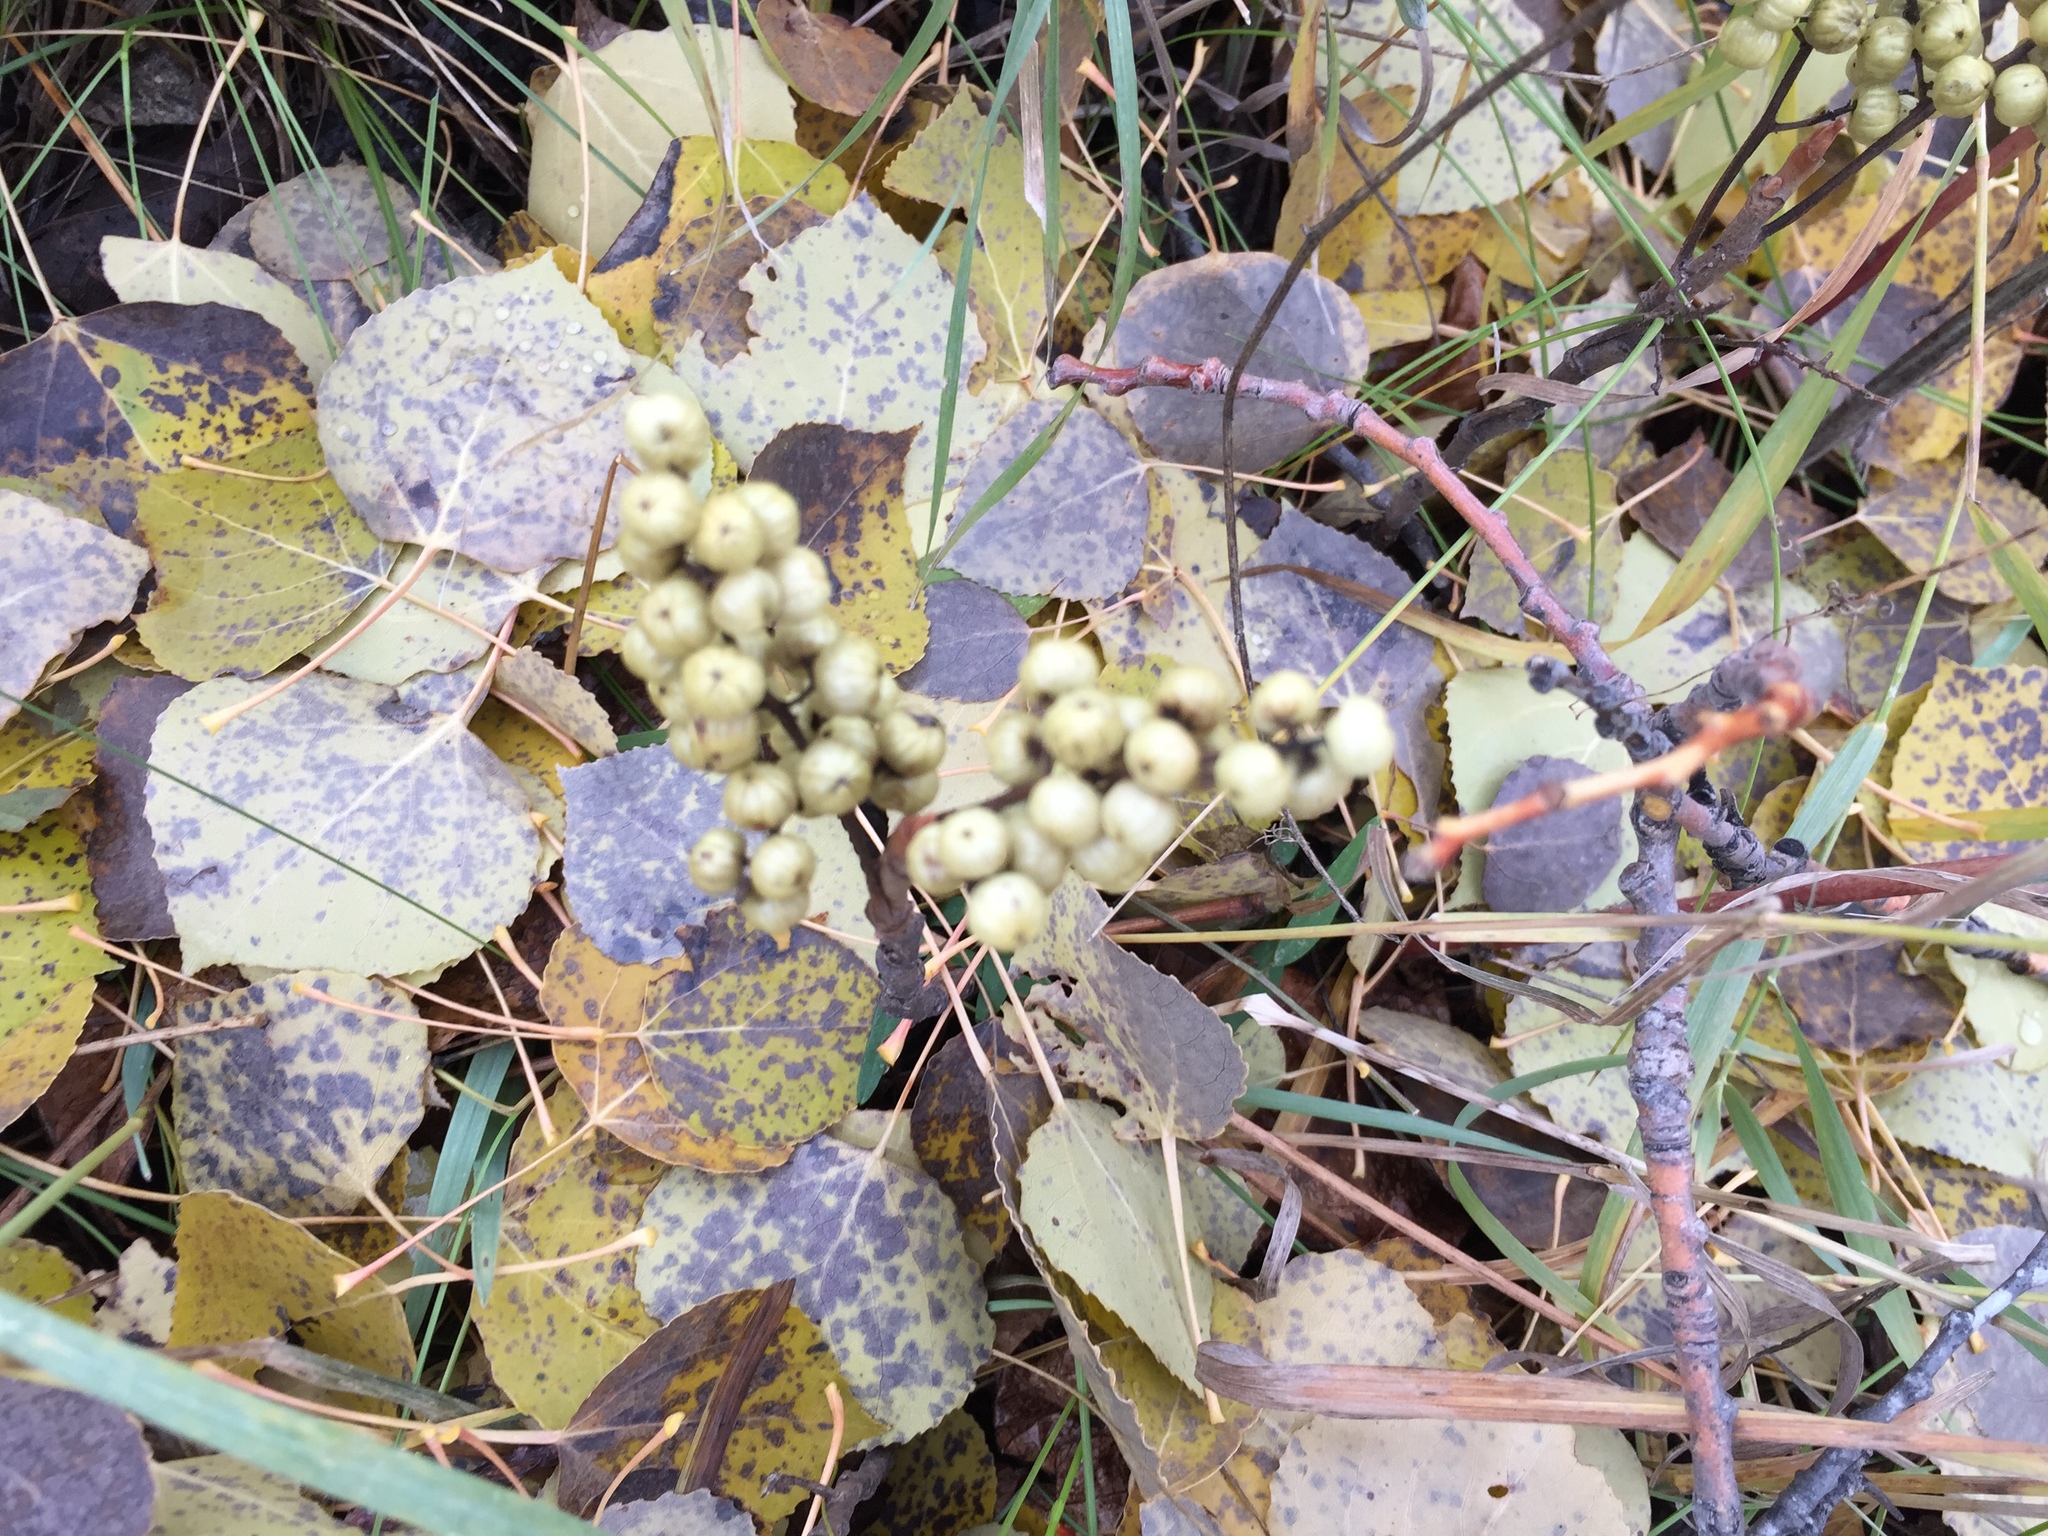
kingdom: Plantae
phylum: Tracheophyta
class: Magnoliopsida
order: Sapindales
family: Anacardiaceae
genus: Toxicodendron
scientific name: Toxicodendron rydbergii
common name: Rydberg's poison-ivy
